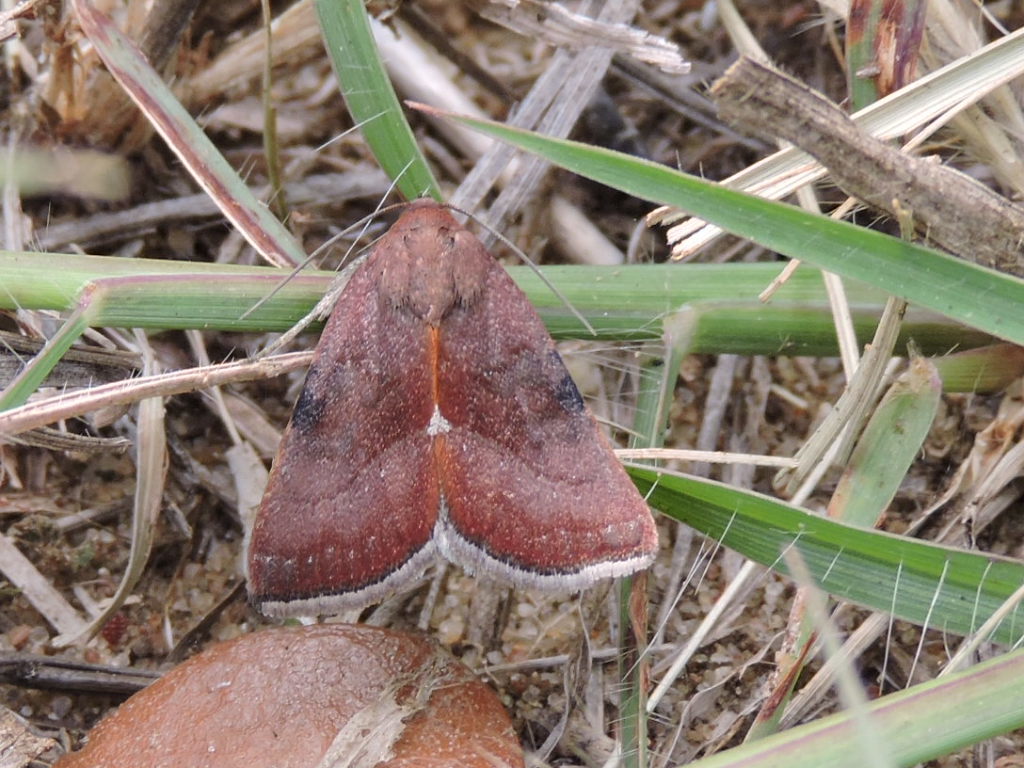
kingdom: Animalia
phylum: Arthropoda
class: Insecta
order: Lepidoptera
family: Noctuidae
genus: Galgula
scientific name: Galgula partita
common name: Wedgeling
